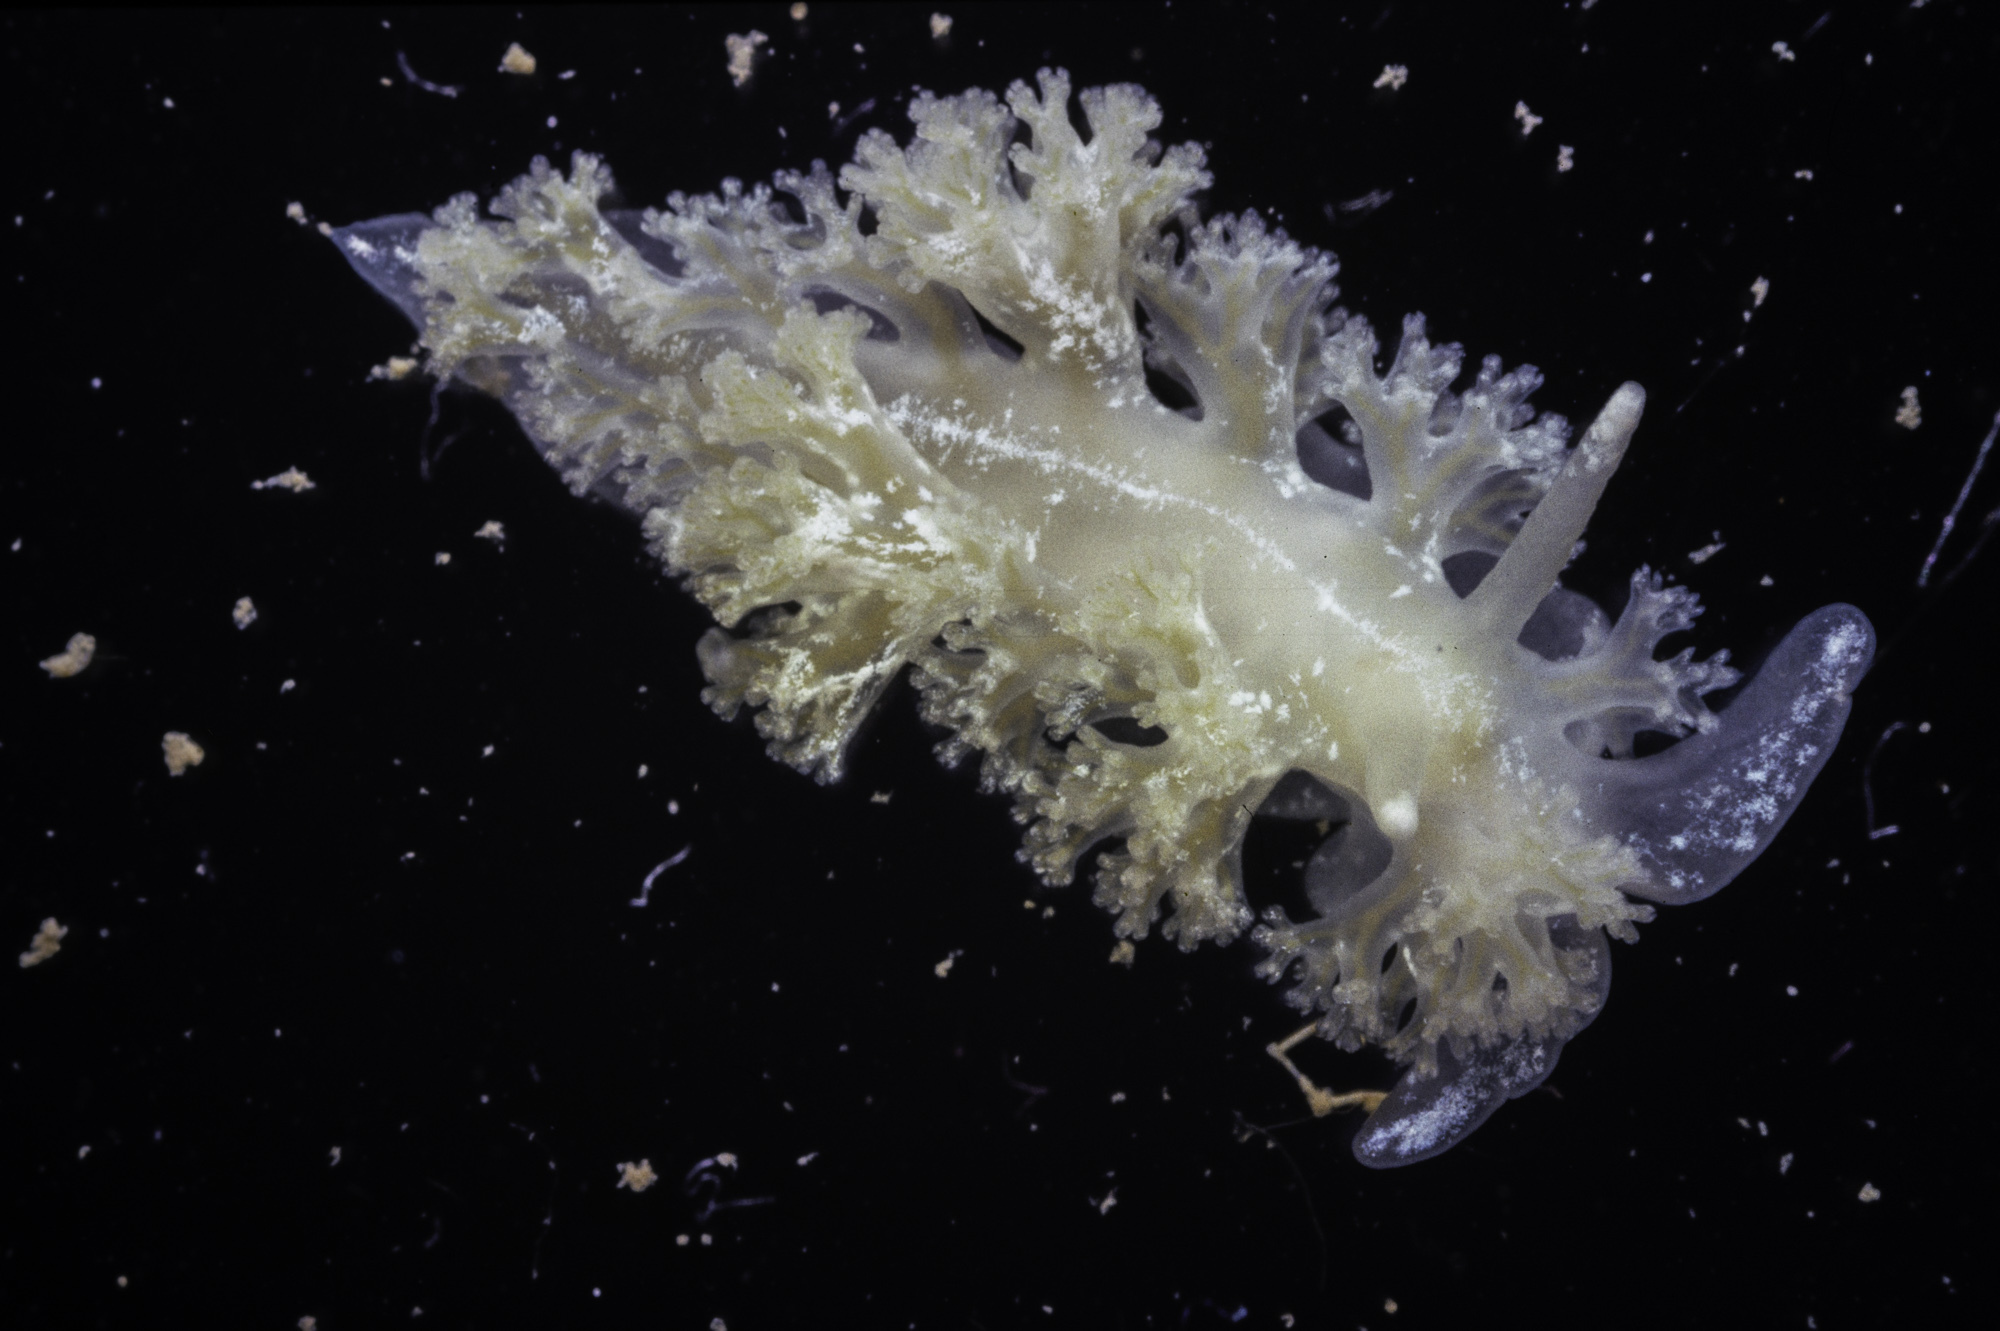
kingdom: Animalia
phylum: Mollusca
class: Gastropoda
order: Nudibranchia
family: Heroidae
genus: Hero
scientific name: Hero formosa
